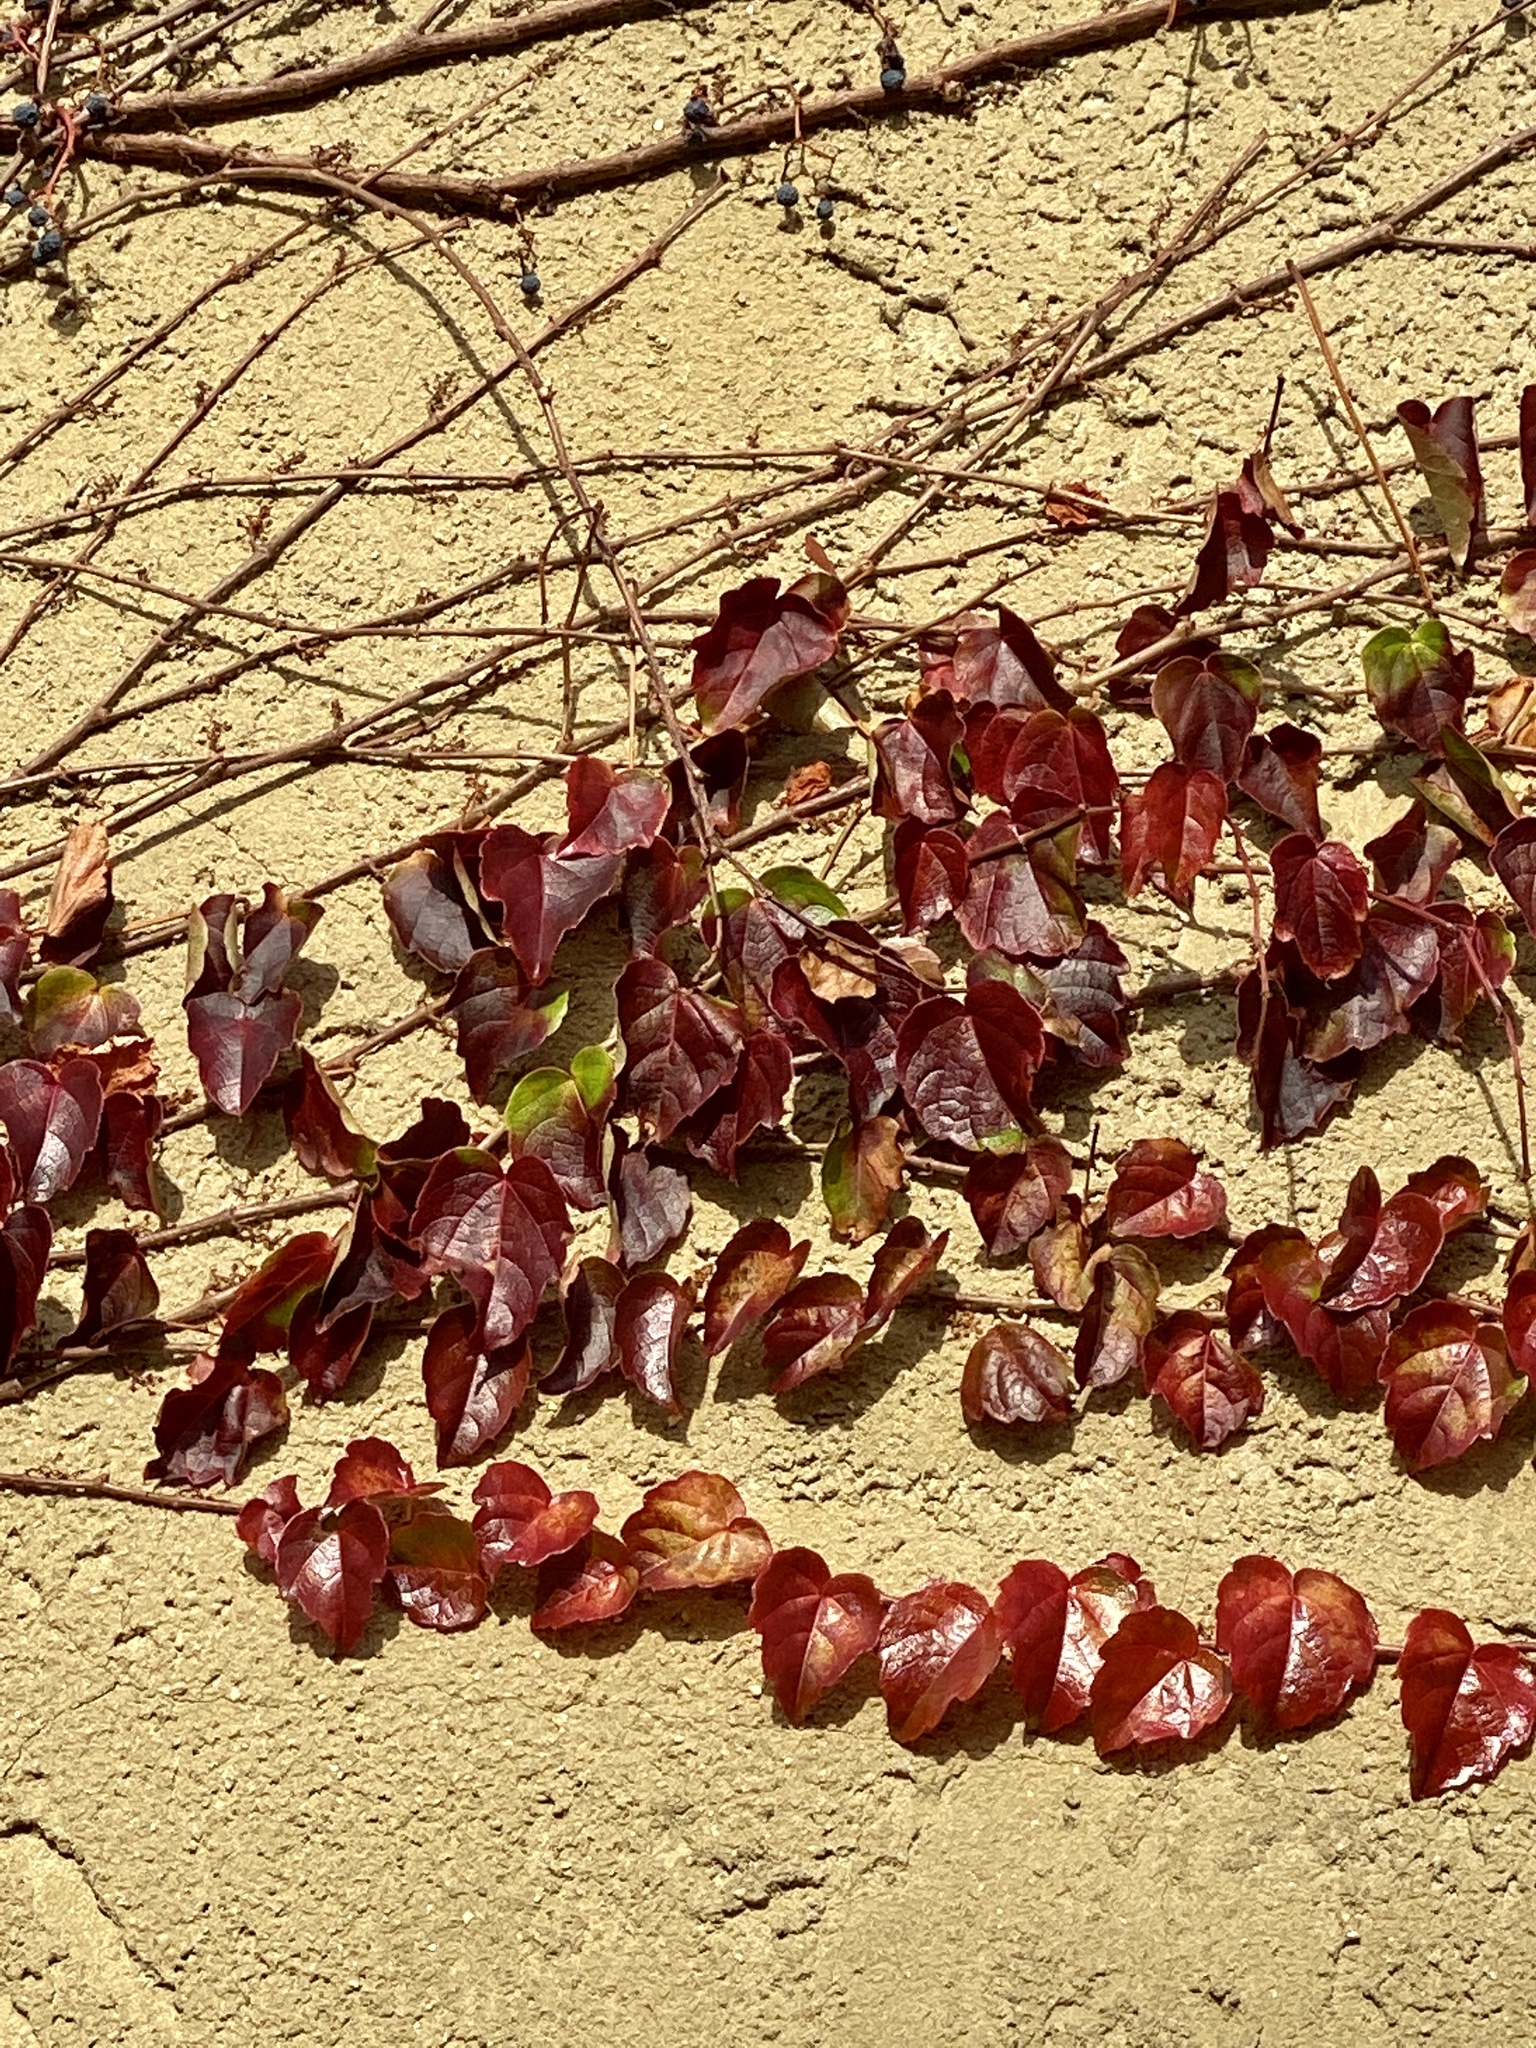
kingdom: Plantae
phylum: Tracheophyta
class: Magnoliopsida
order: Vitales
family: Vitaceae
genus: Parthenocissus
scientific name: Parthenocissus tricuspidata
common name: Boston ivy
